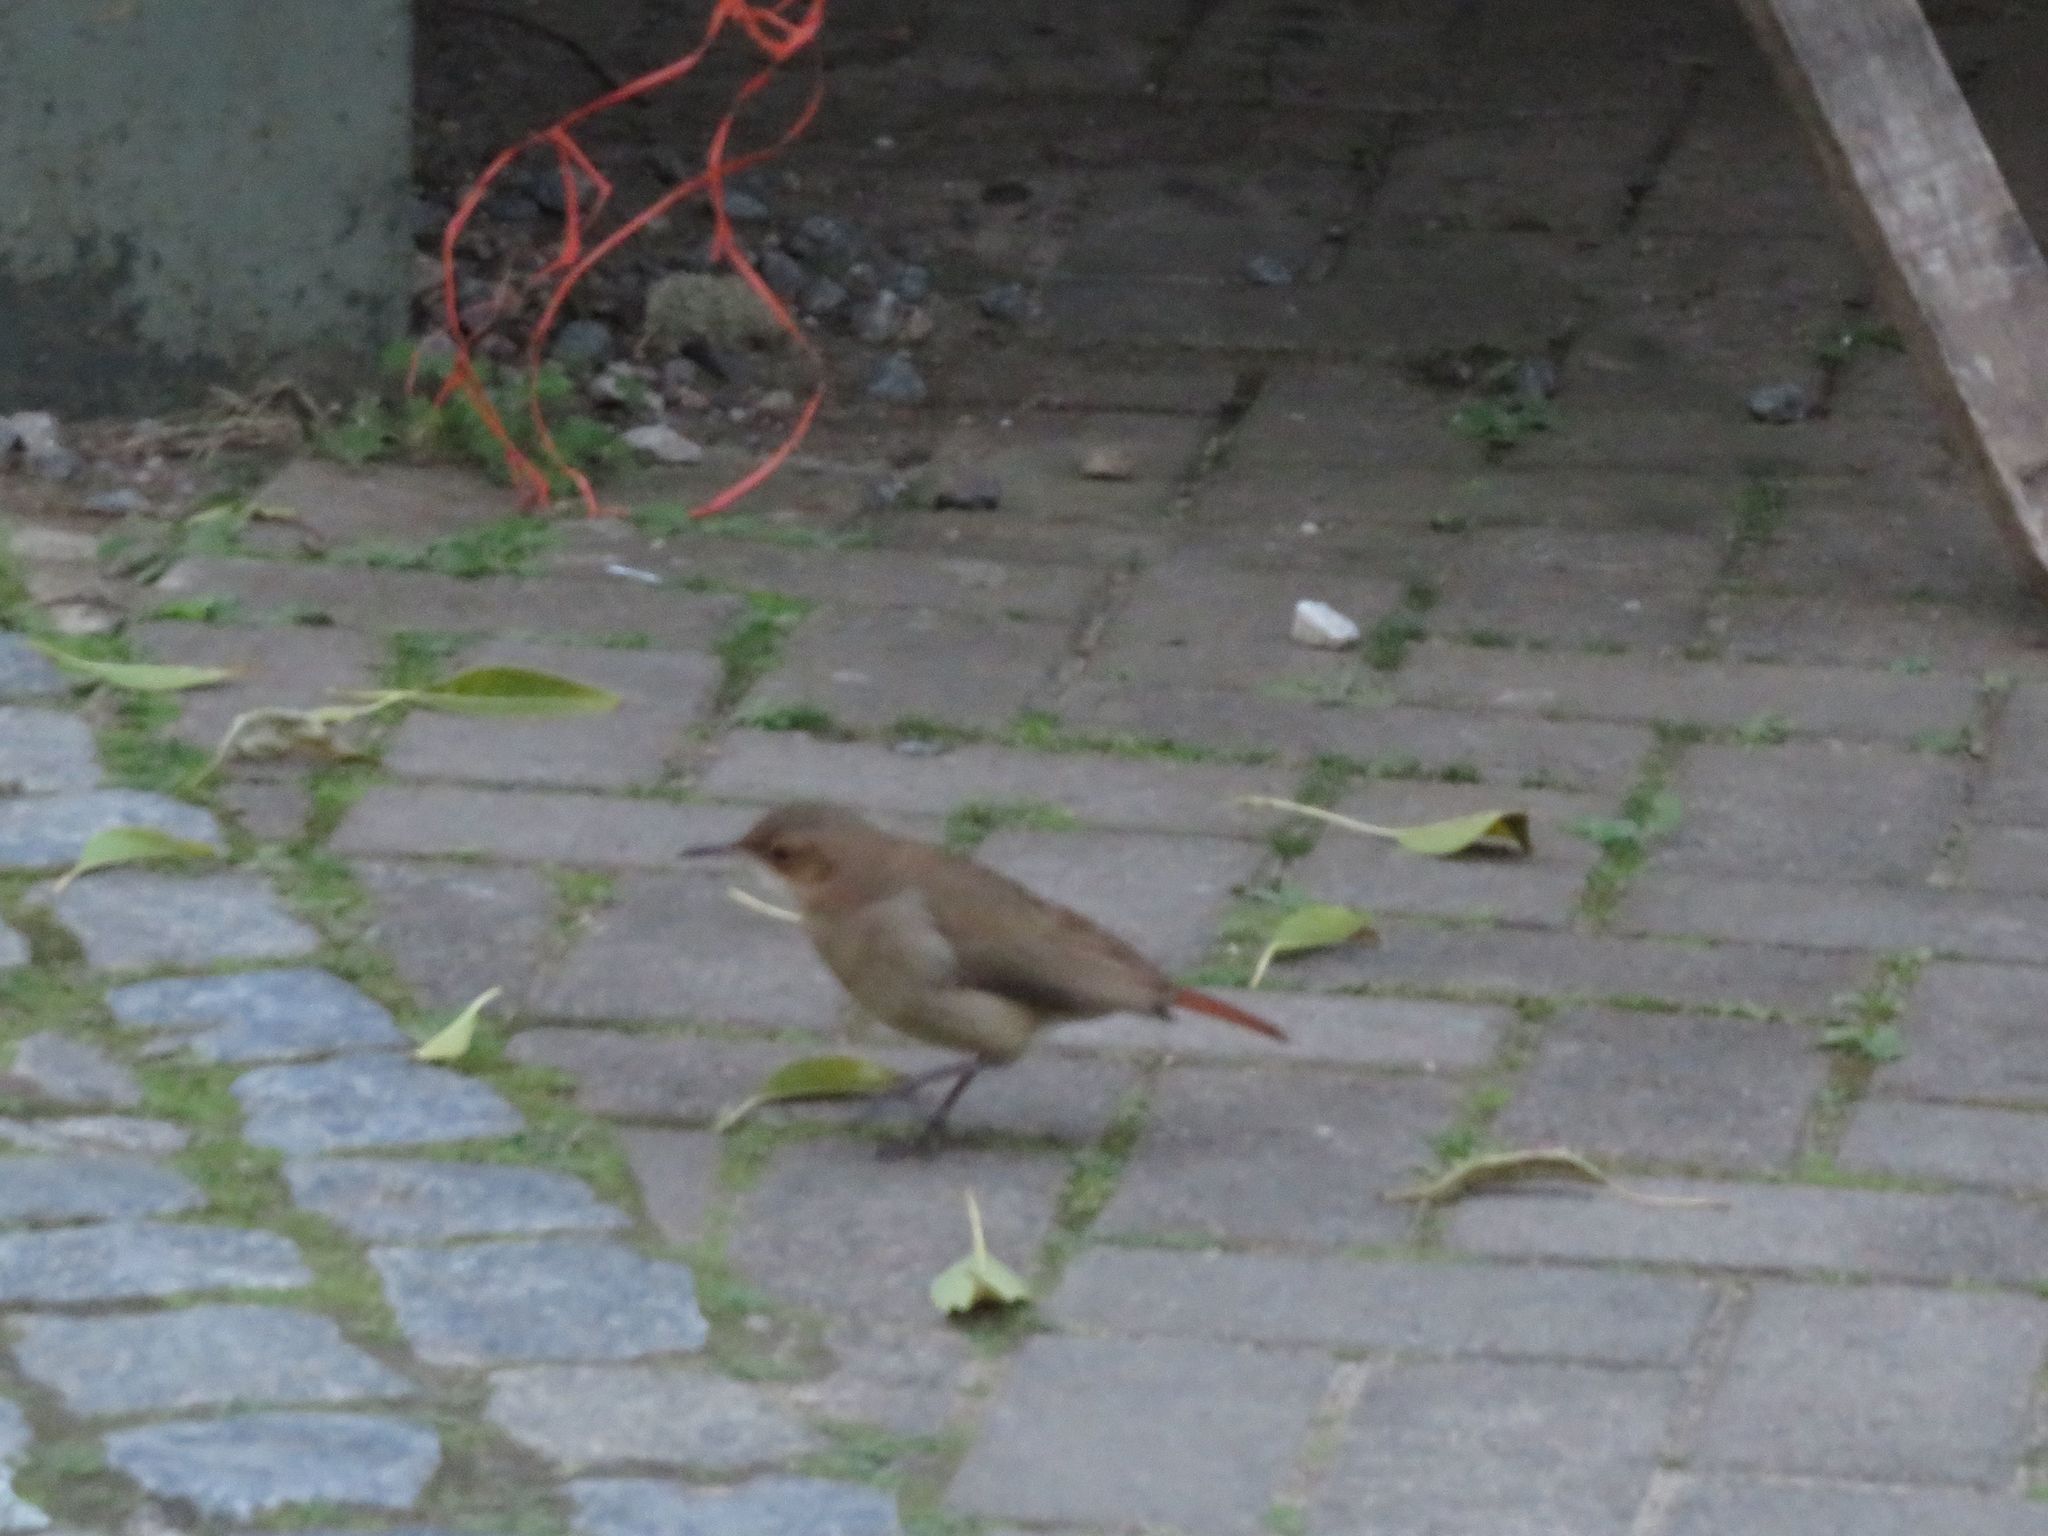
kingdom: Animalia
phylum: Chordata
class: Aves
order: Passeriformes
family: Furnariidae
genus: Furnarius
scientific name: Furnarius rufus
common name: Rufous hornero
